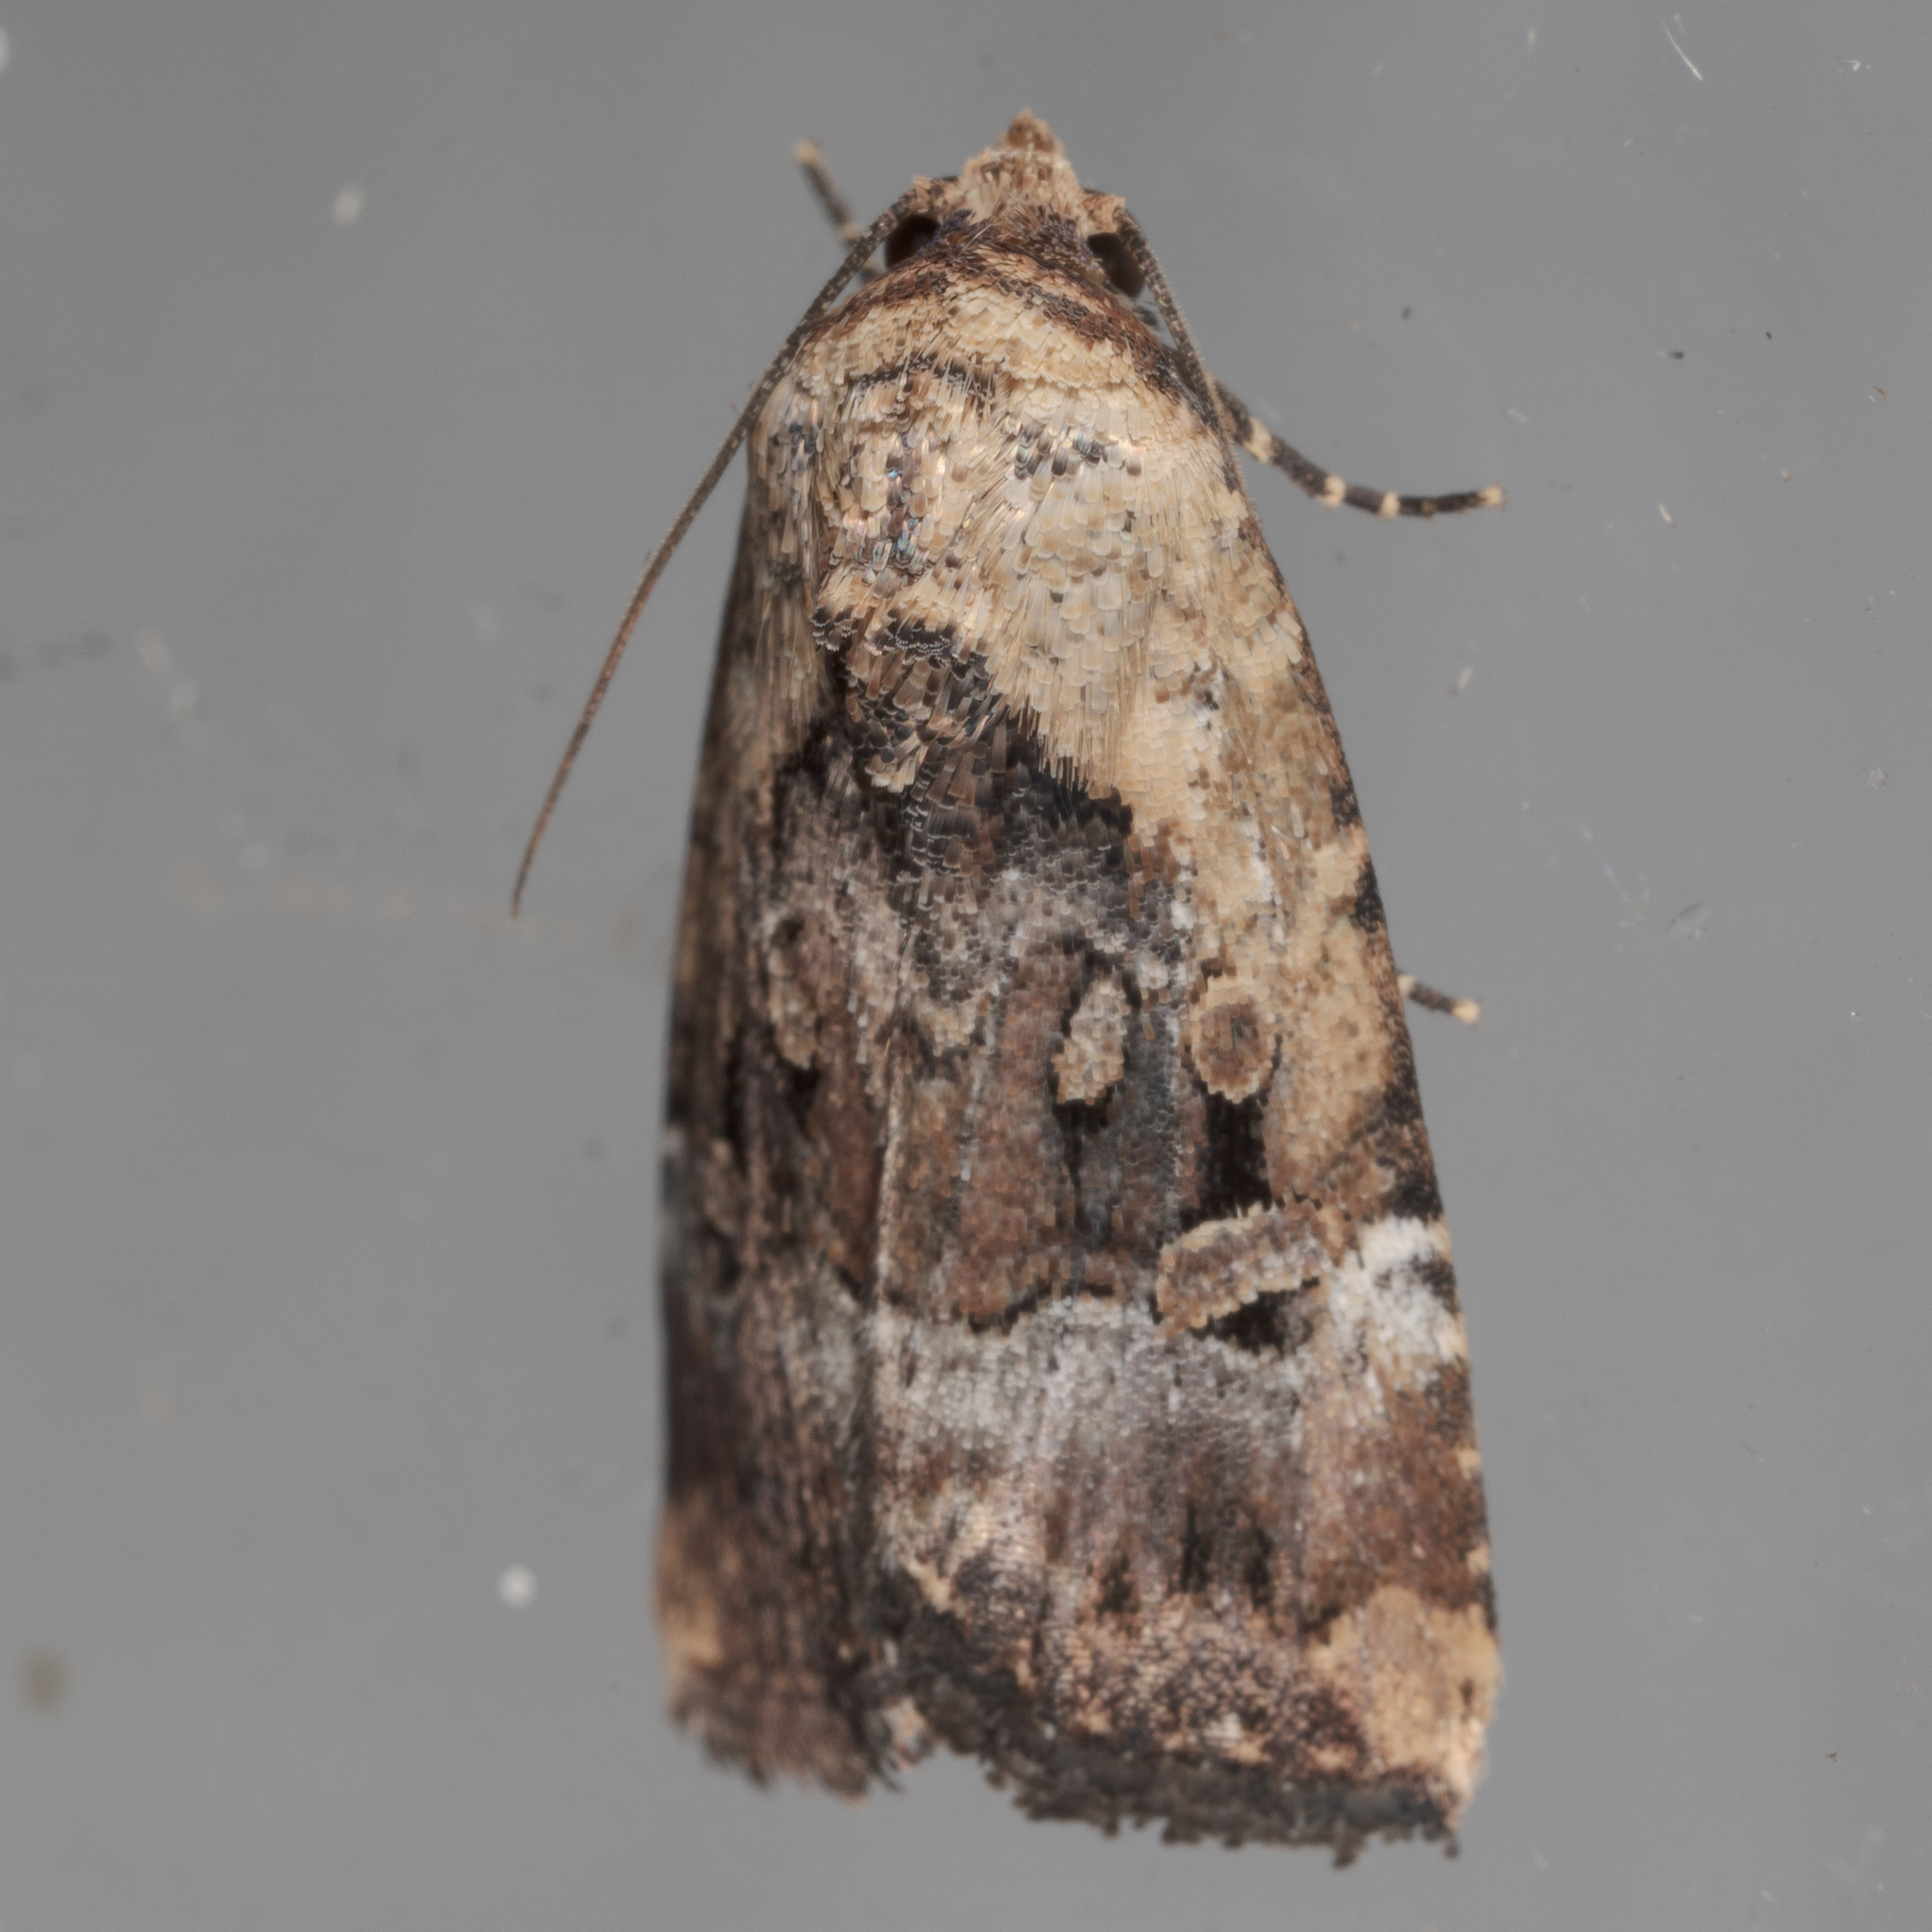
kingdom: Animalia
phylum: Arthropoda
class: Insecta
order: Lepidoptera
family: Noctuidae
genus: Elaphria
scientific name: Elaphria chalcedonia
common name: Chalcedony midget
